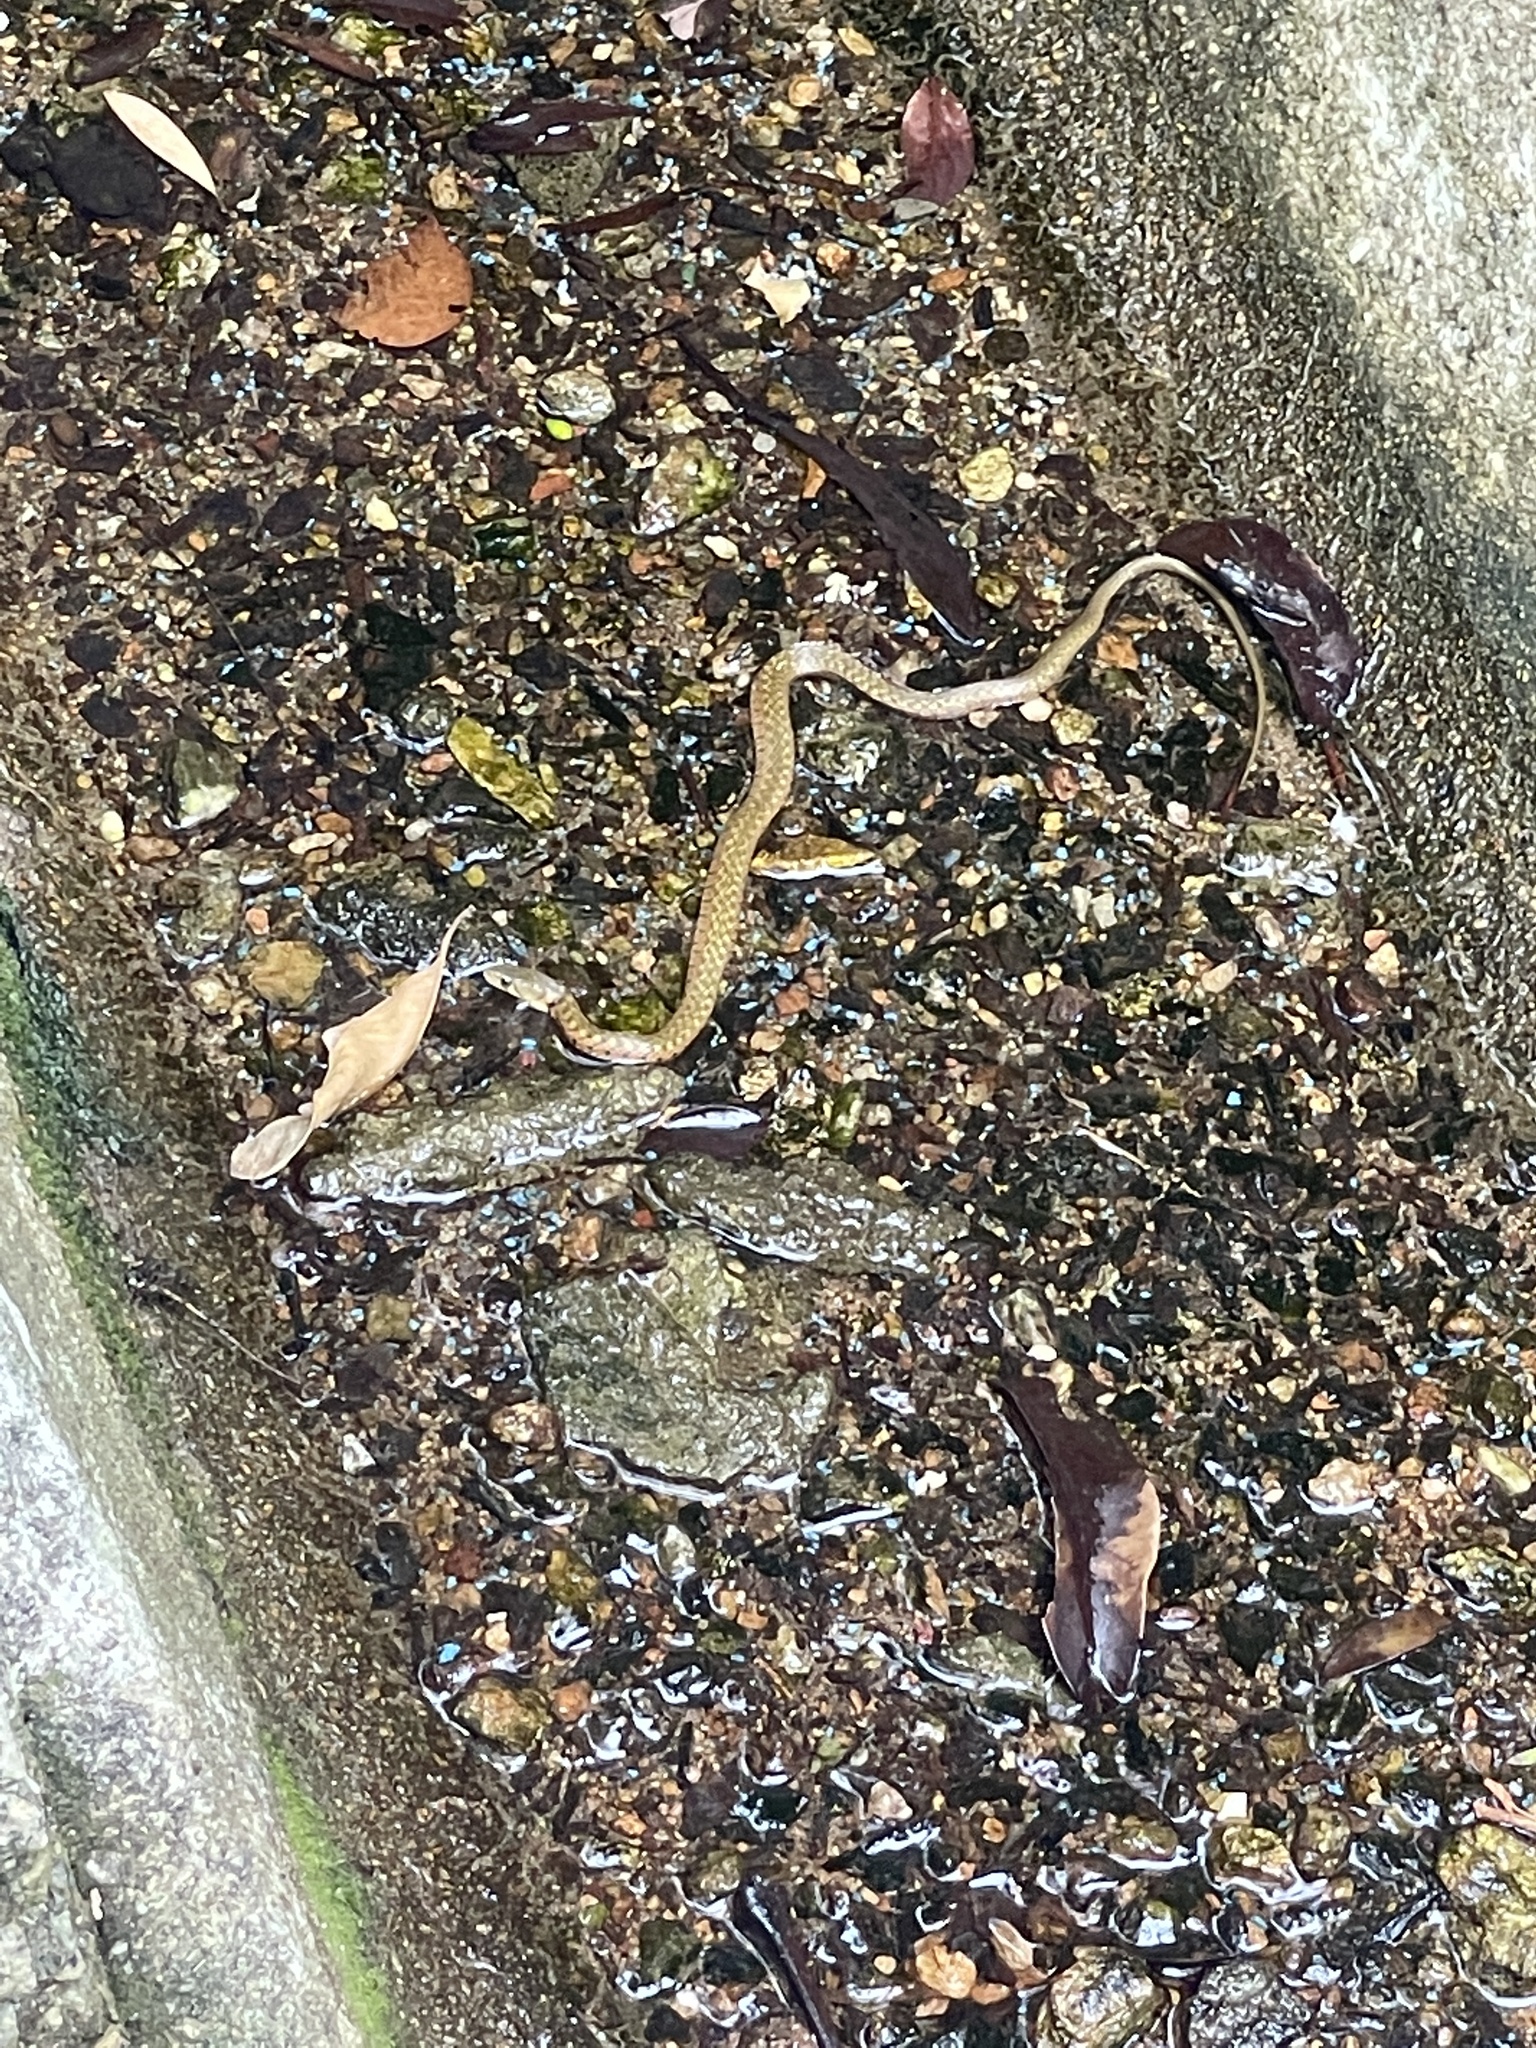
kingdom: Animalia
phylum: Chordata
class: Squamata
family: Colubridae
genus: Fowlea
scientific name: Fowlea flavipunctatus
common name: Yellow-spotted keelback
